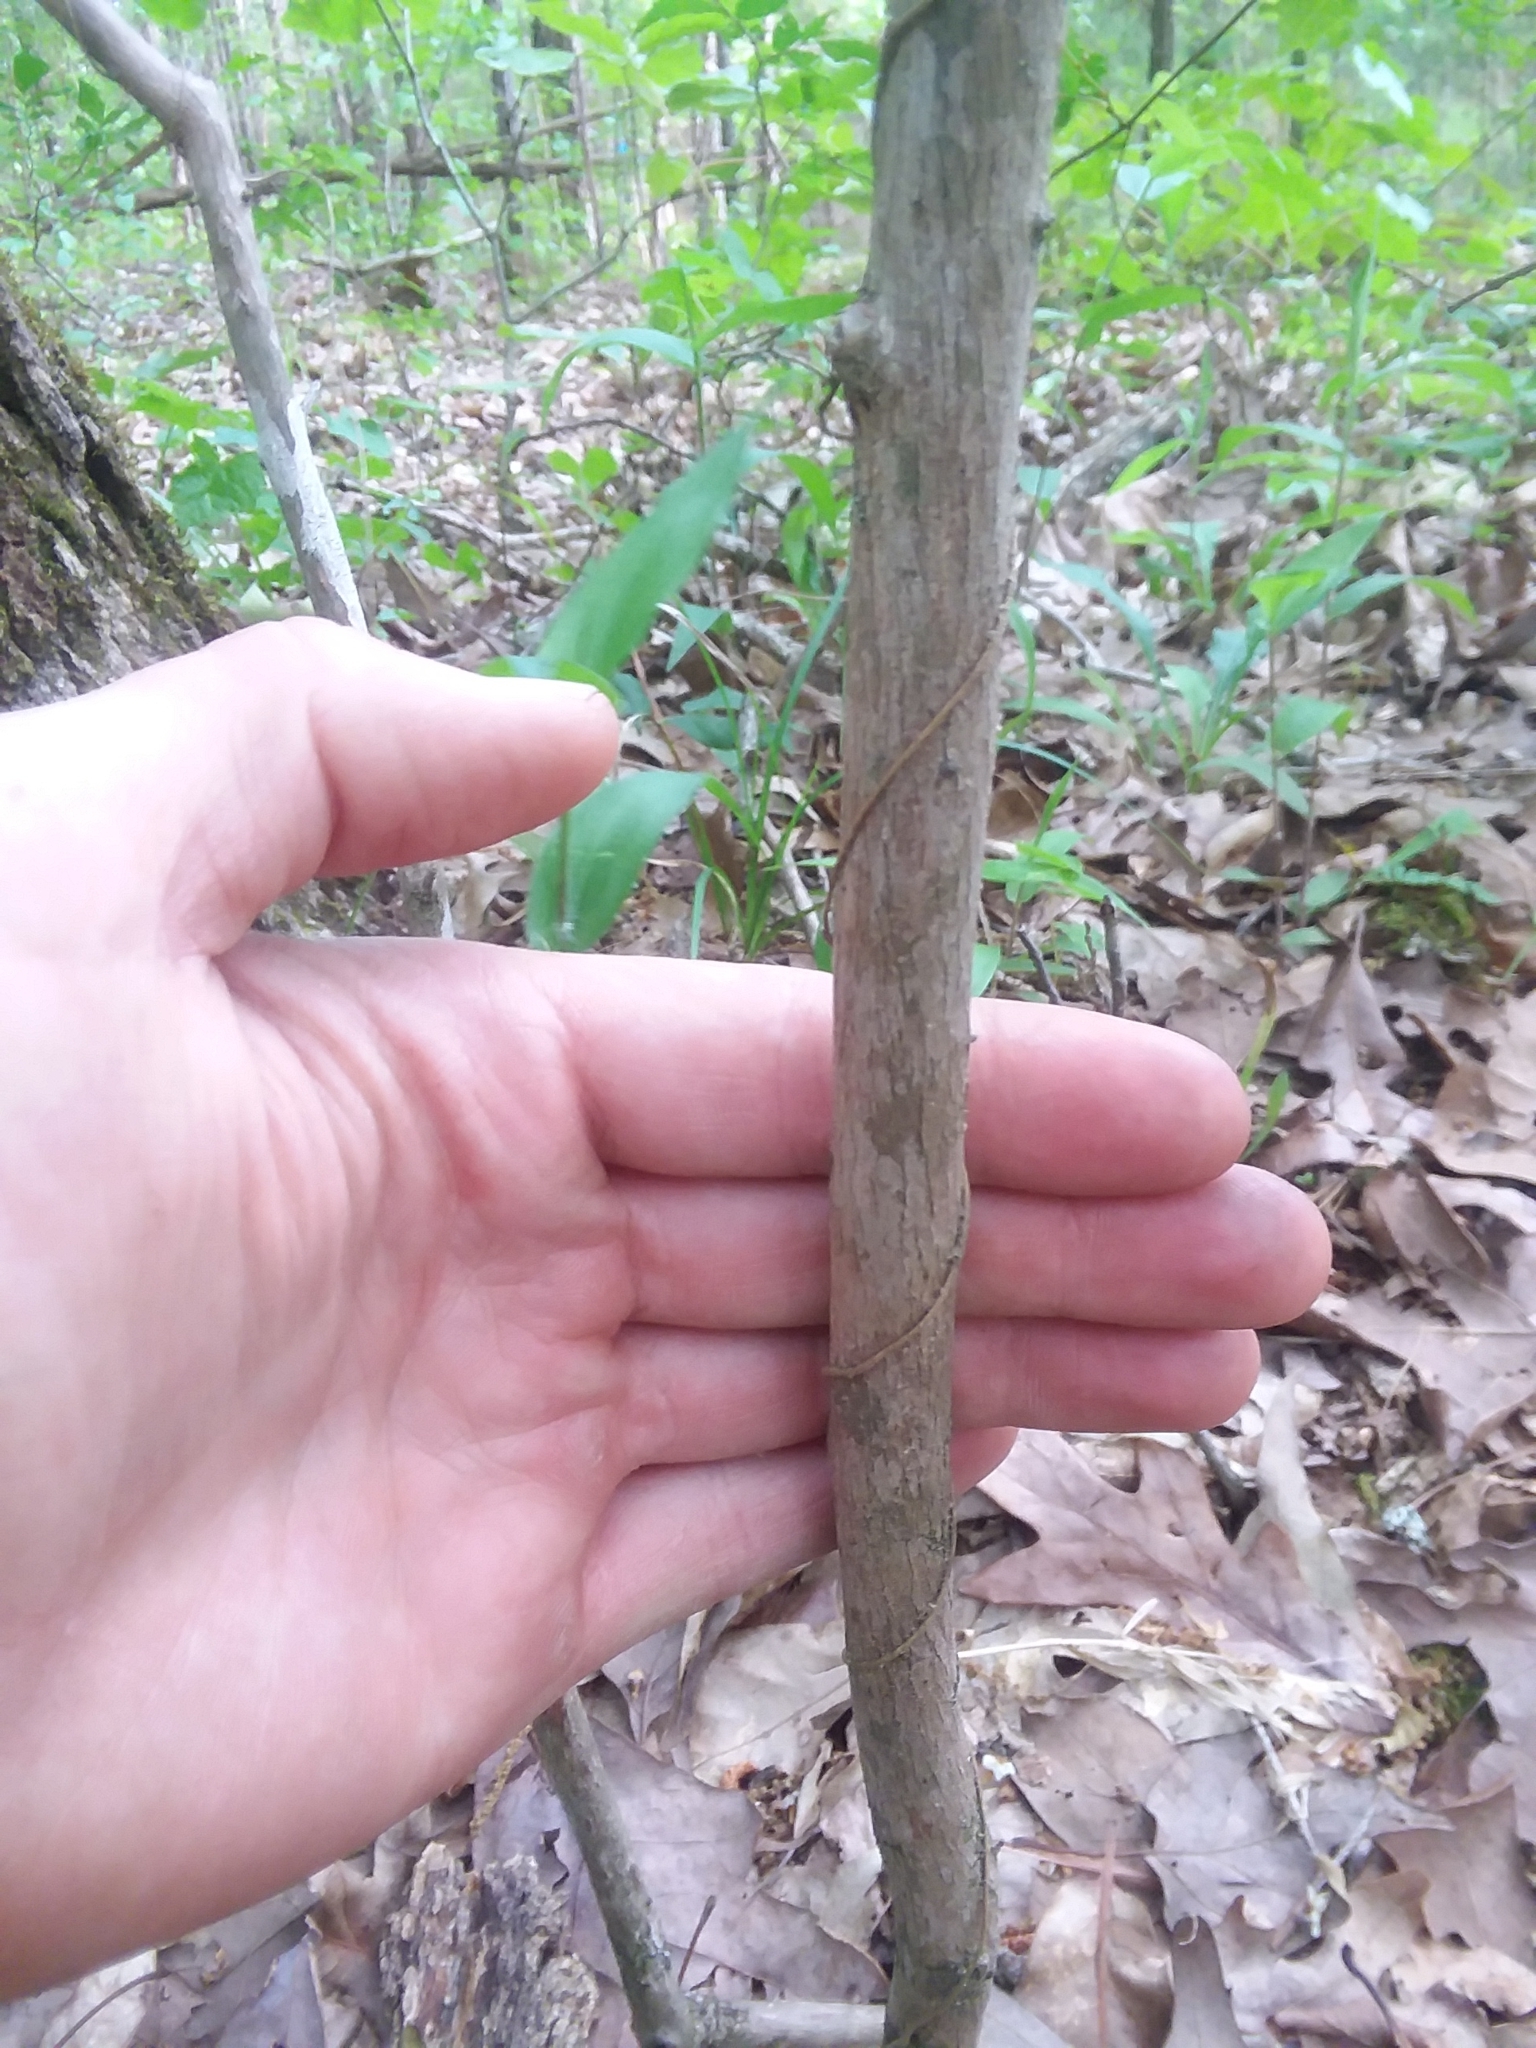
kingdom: Plantae
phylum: Tracheophyta
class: Magnoliopsida
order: Ericales
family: Ericaceae
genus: Vaccinium
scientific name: Vaccinium stamineum
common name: Deerberry
